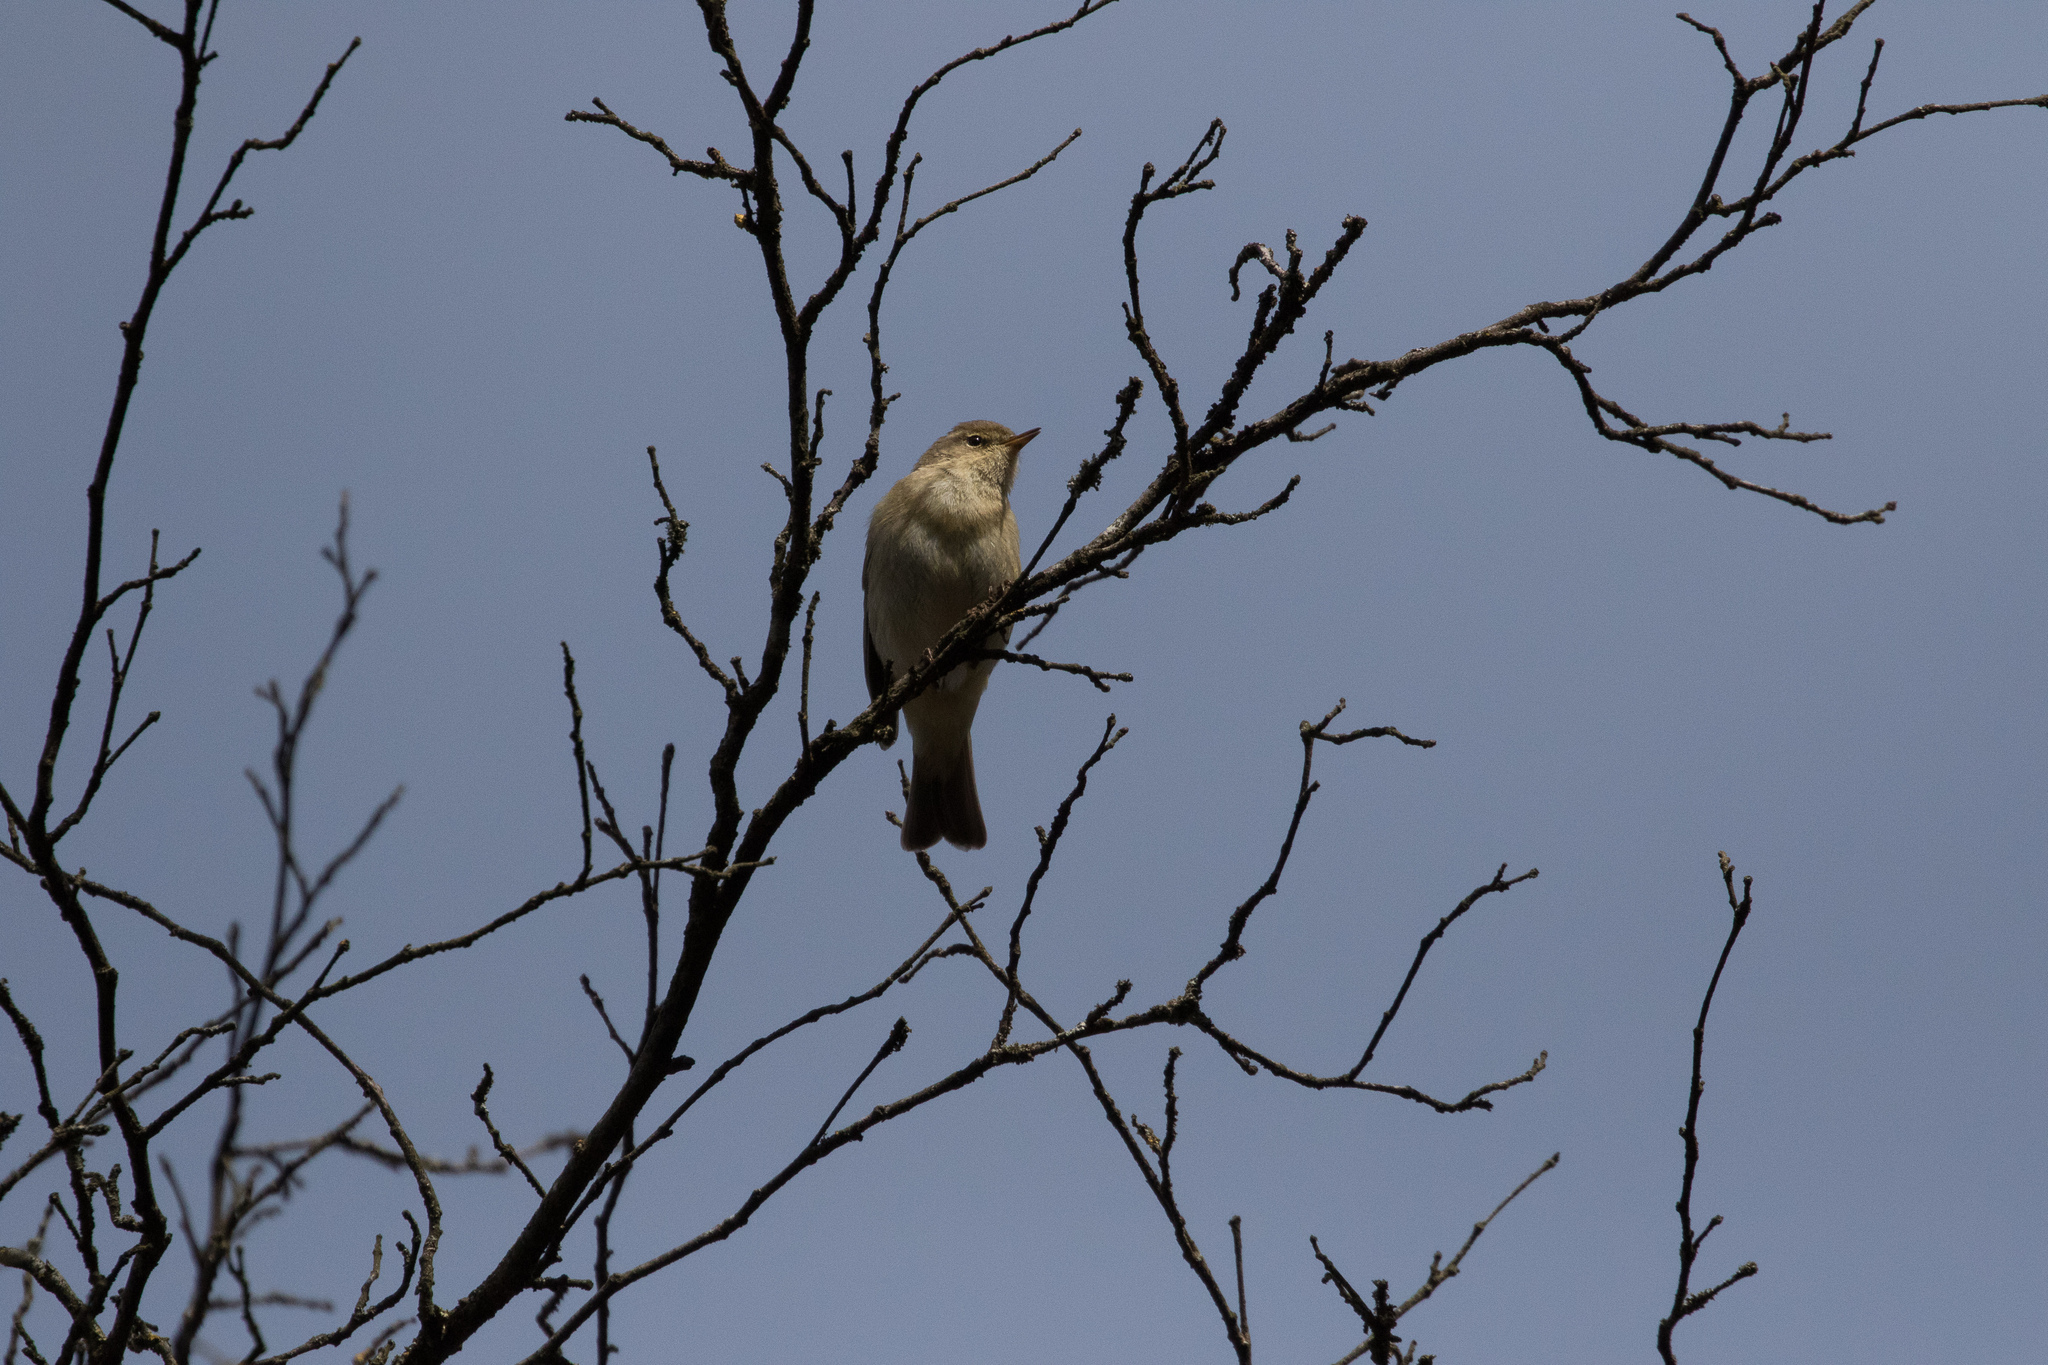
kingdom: Animalia
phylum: Chordata
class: Aves
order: Passeriformes
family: Phylloscopidae
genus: Phylloscopus
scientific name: Phylloscopus collybita
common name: Common chiffchaff
